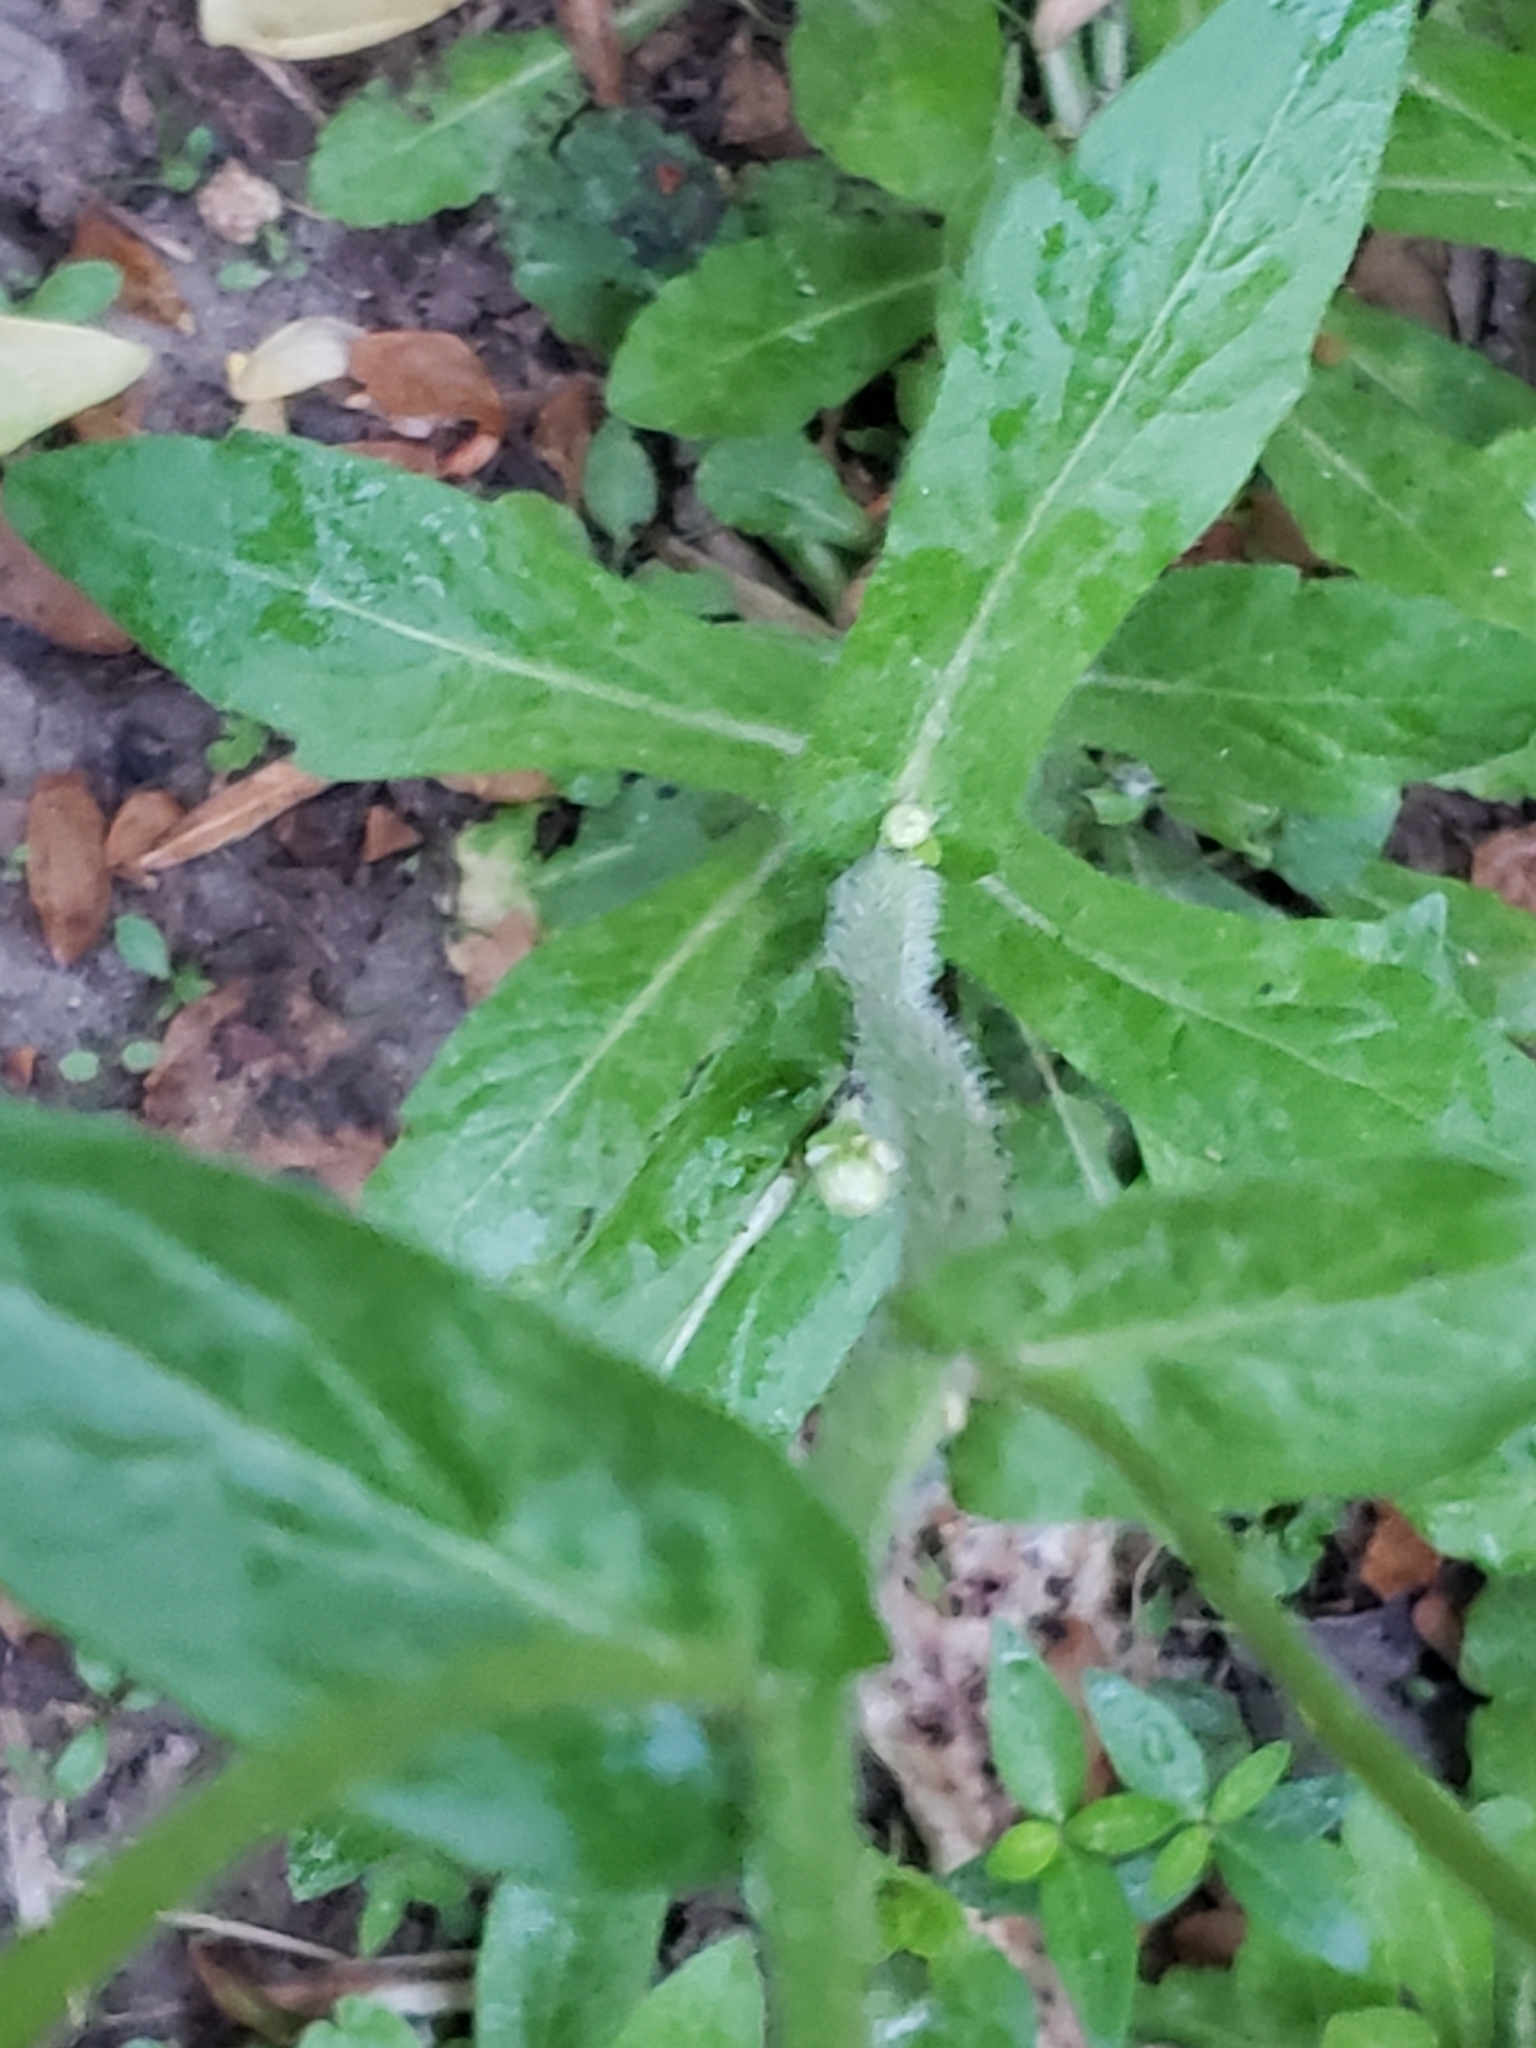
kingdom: Plantae
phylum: Tracheophyta
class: Magnoliopsida
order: Asterales
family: Asteraceae
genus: Erigeron
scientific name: Erigeron philadelphicus
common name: Robin's-plantain
